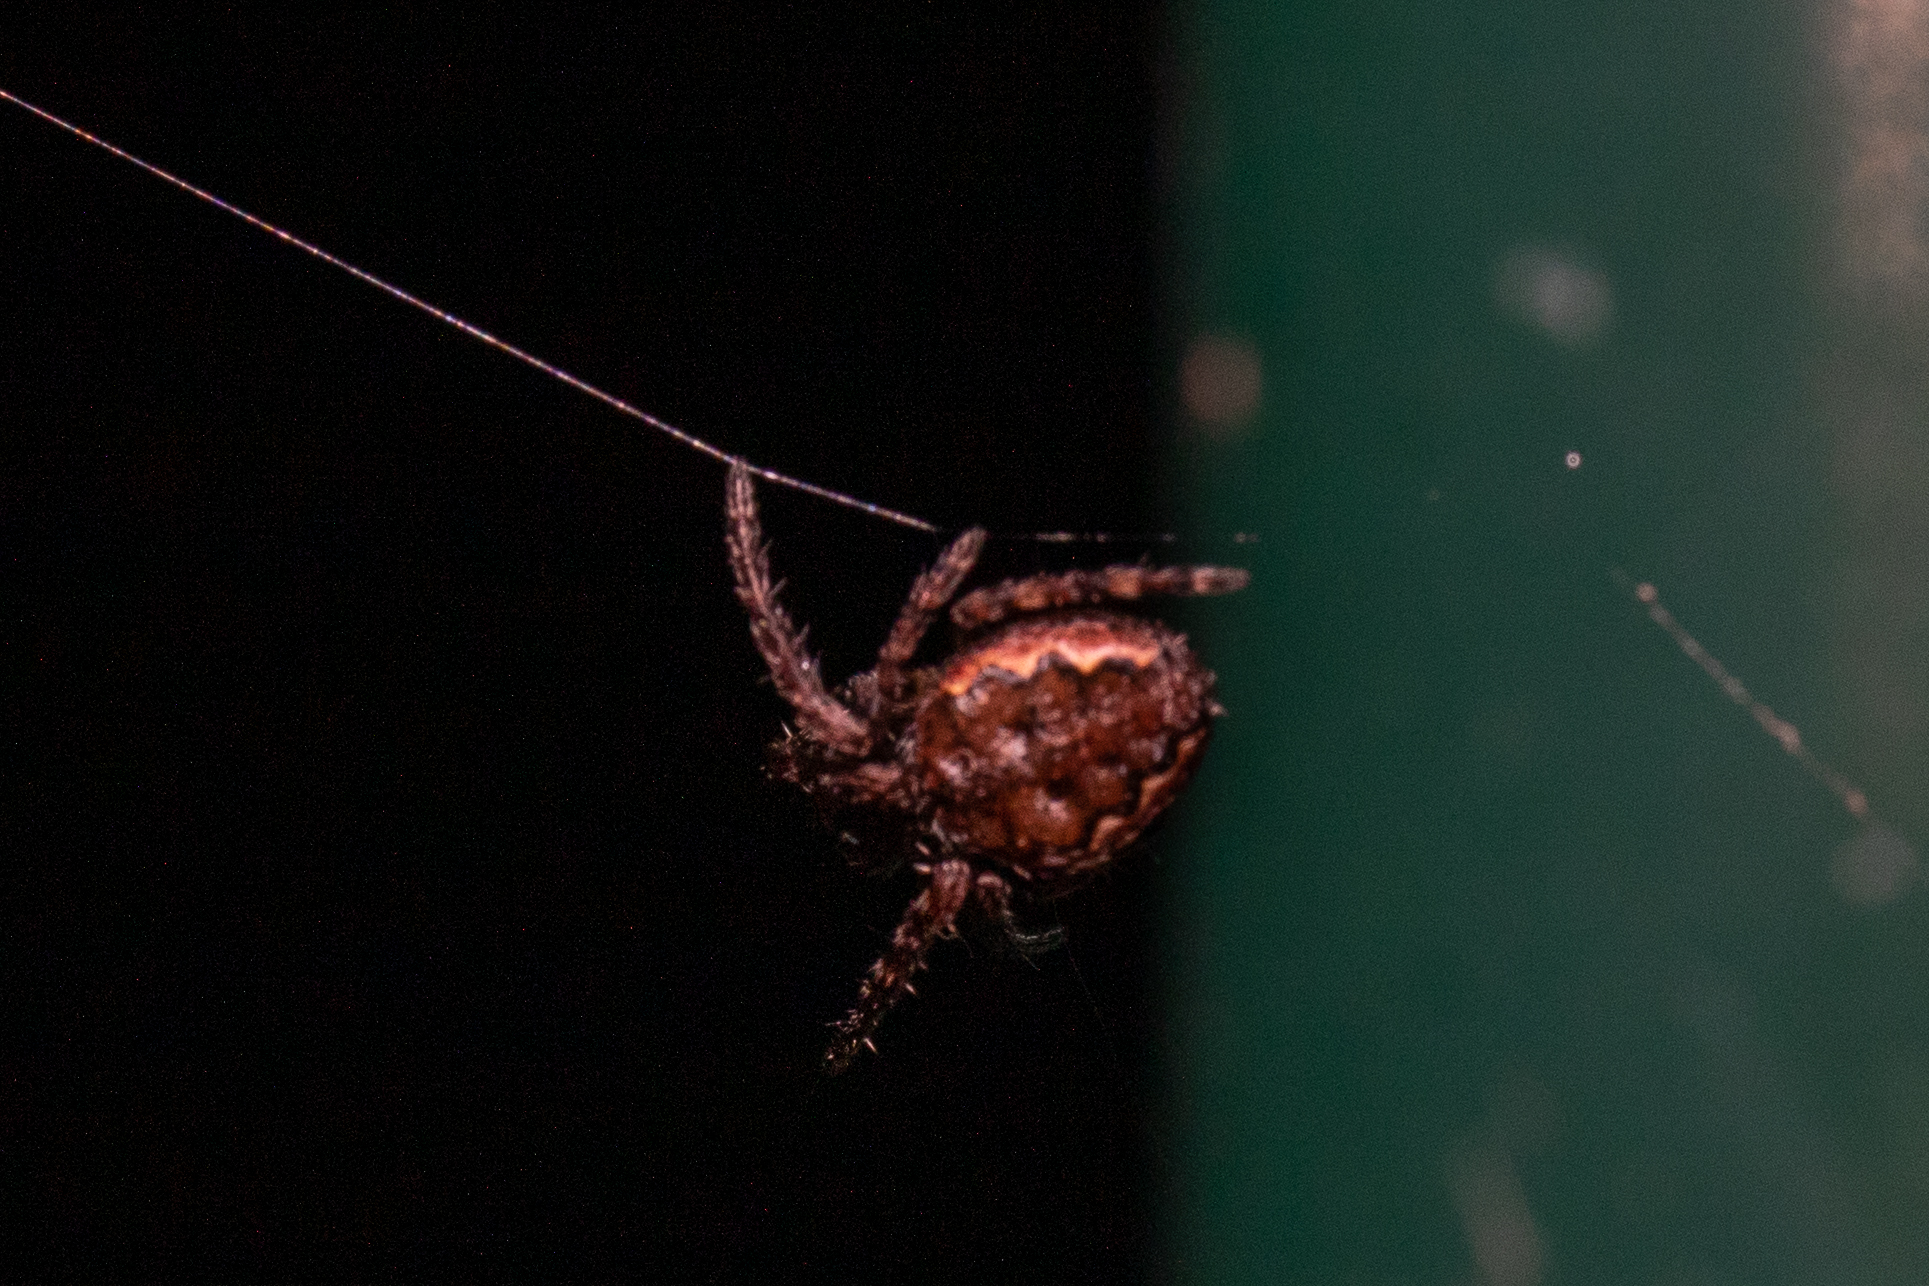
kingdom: Animalia
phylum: Arthropoda
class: Arachnida
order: Araneae
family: Araneidae
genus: Nuctenea
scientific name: Nuctenea umbratica
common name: Toad spider
